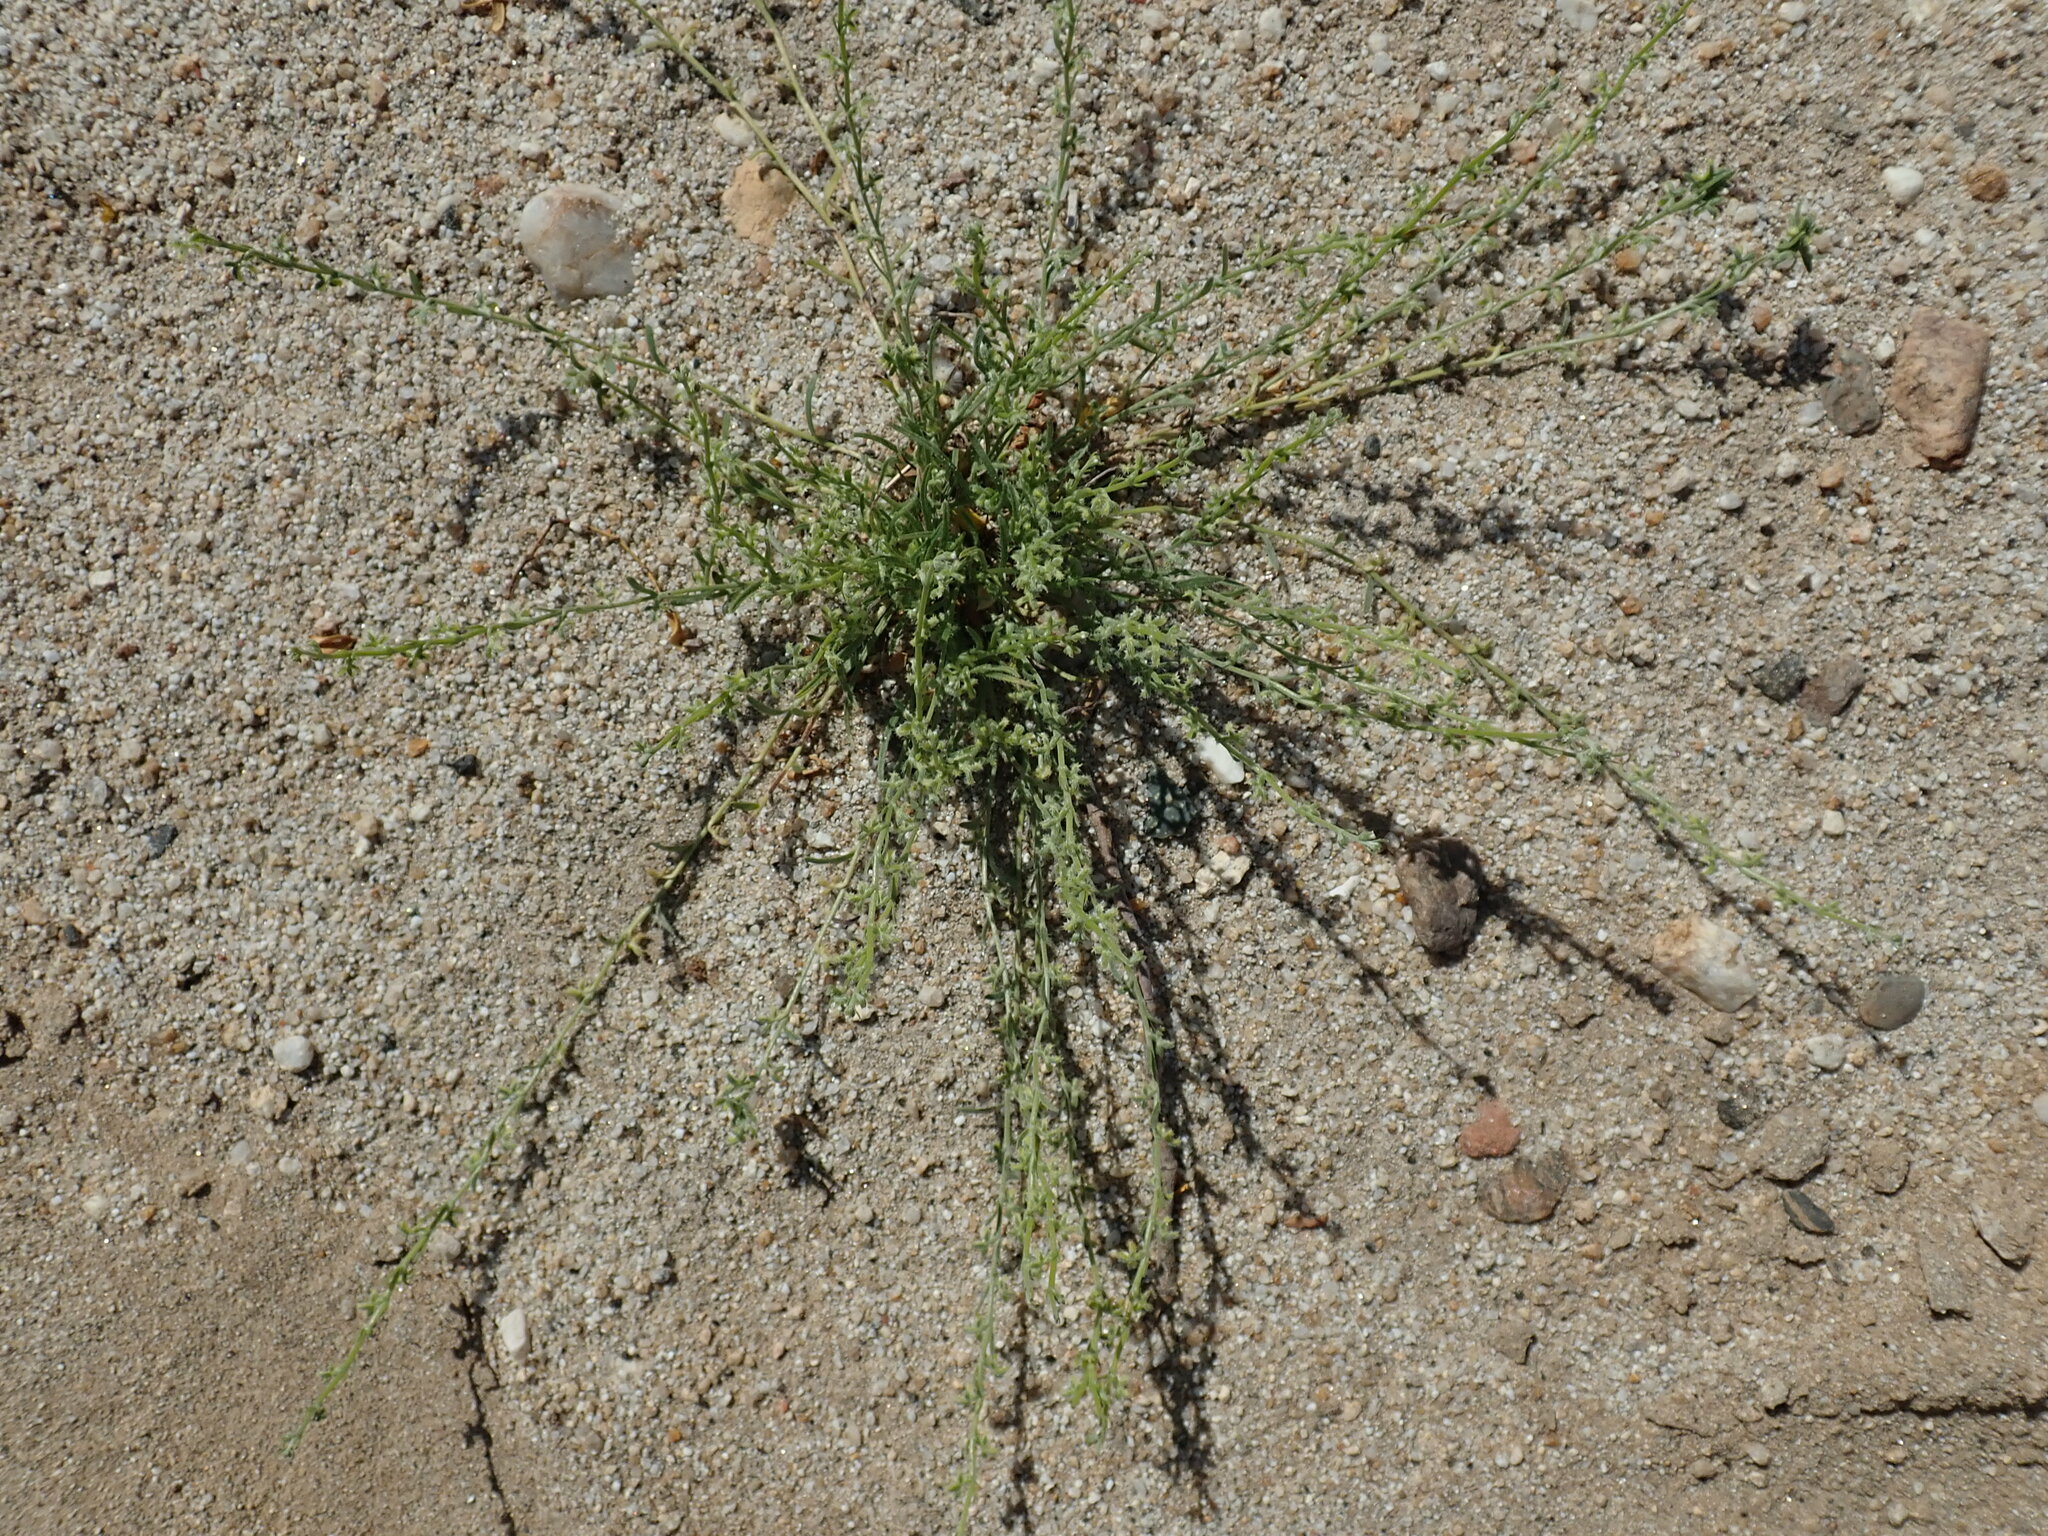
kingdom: Plantae
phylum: Tracheophyta
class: Magnoliopsida
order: Boraginales
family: Boraginaceae
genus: Pectocarya
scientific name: Pectocarya heterocarpa
